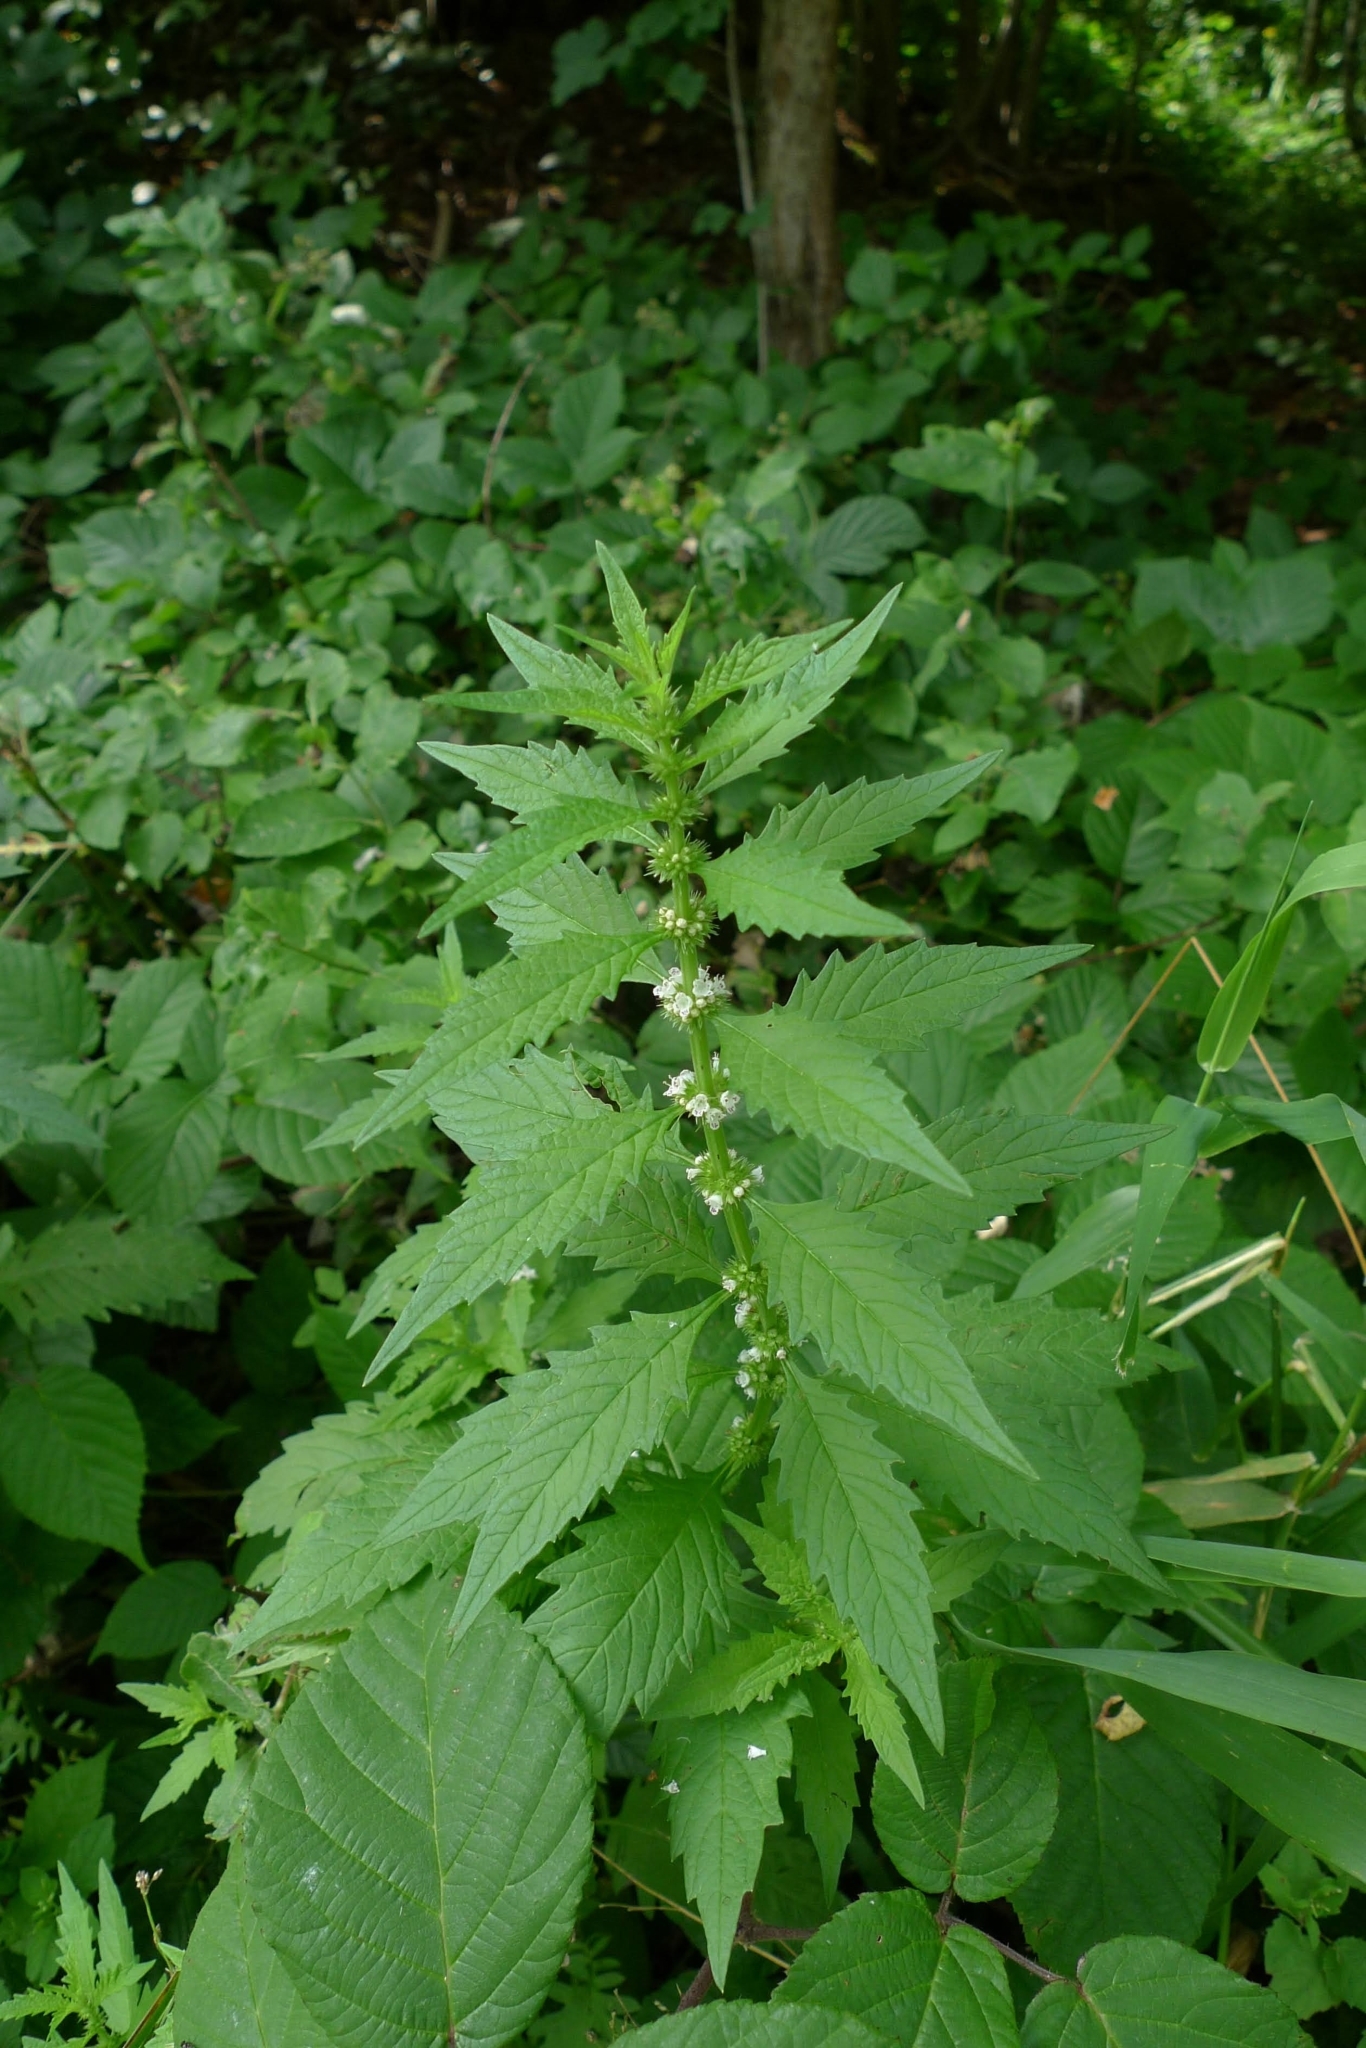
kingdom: Plantae
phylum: Tracheophyta
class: Magnoliopsida
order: Lamiales
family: Lamiaceae
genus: Lycopus
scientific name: Lycopus europaeus
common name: European bugleweed
